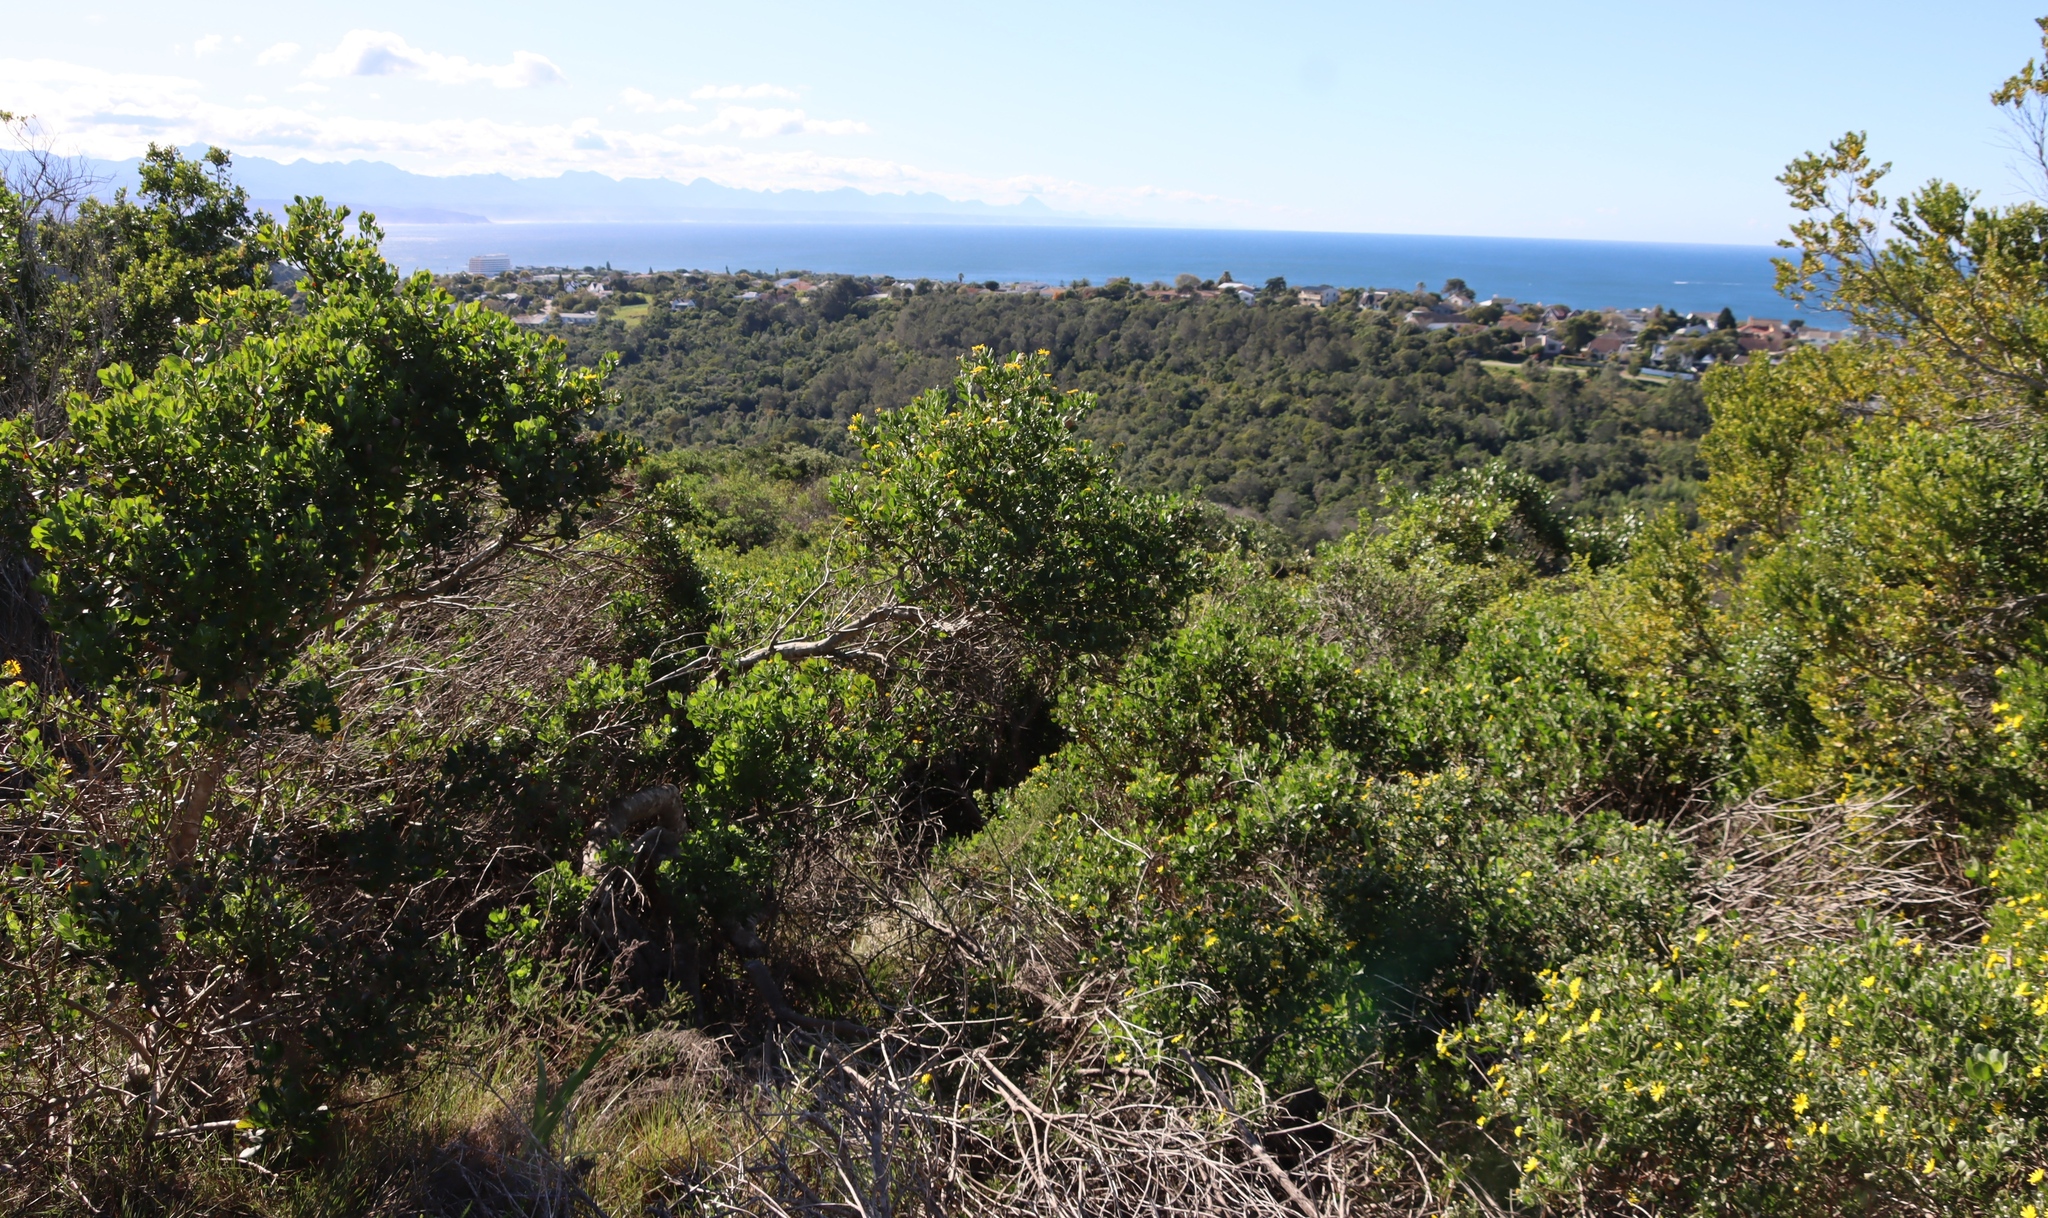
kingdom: Plantae
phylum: Tracheophyta
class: Magnoliopsida
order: Asterales
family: Asteraceae
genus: Osteospermum
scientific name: Osteospermum moniliferum
